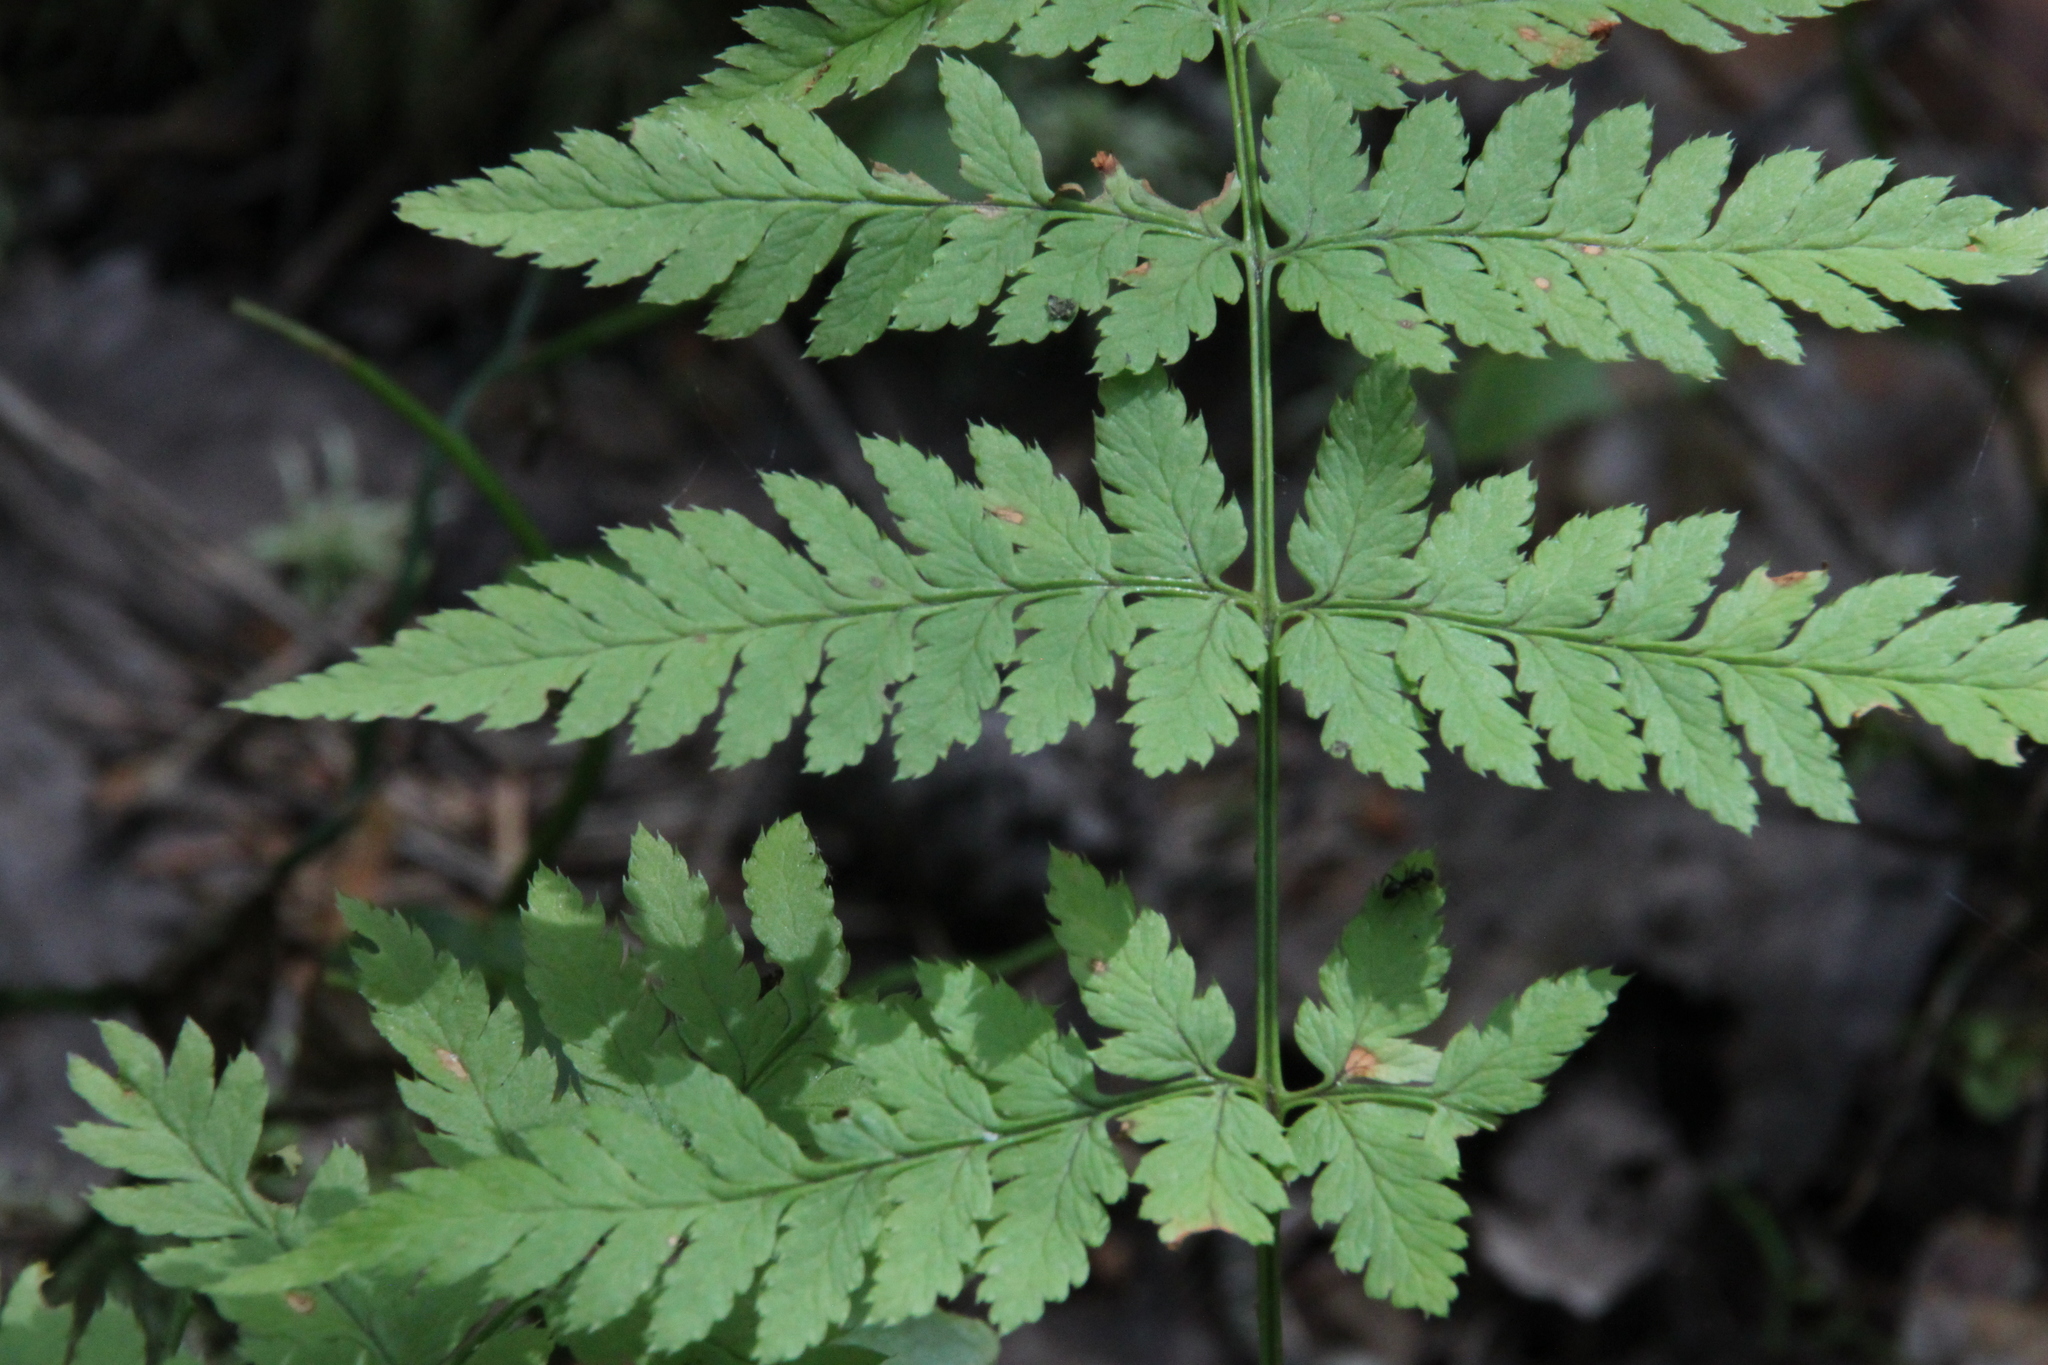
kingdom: Plantae
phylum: Tracheophyta
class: Polypodiopsida
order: Polypodiales
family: Dryopteridaceae
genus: Dryopteris
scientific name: Dryopteris carthusiana
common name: Narrow buckler-fern
